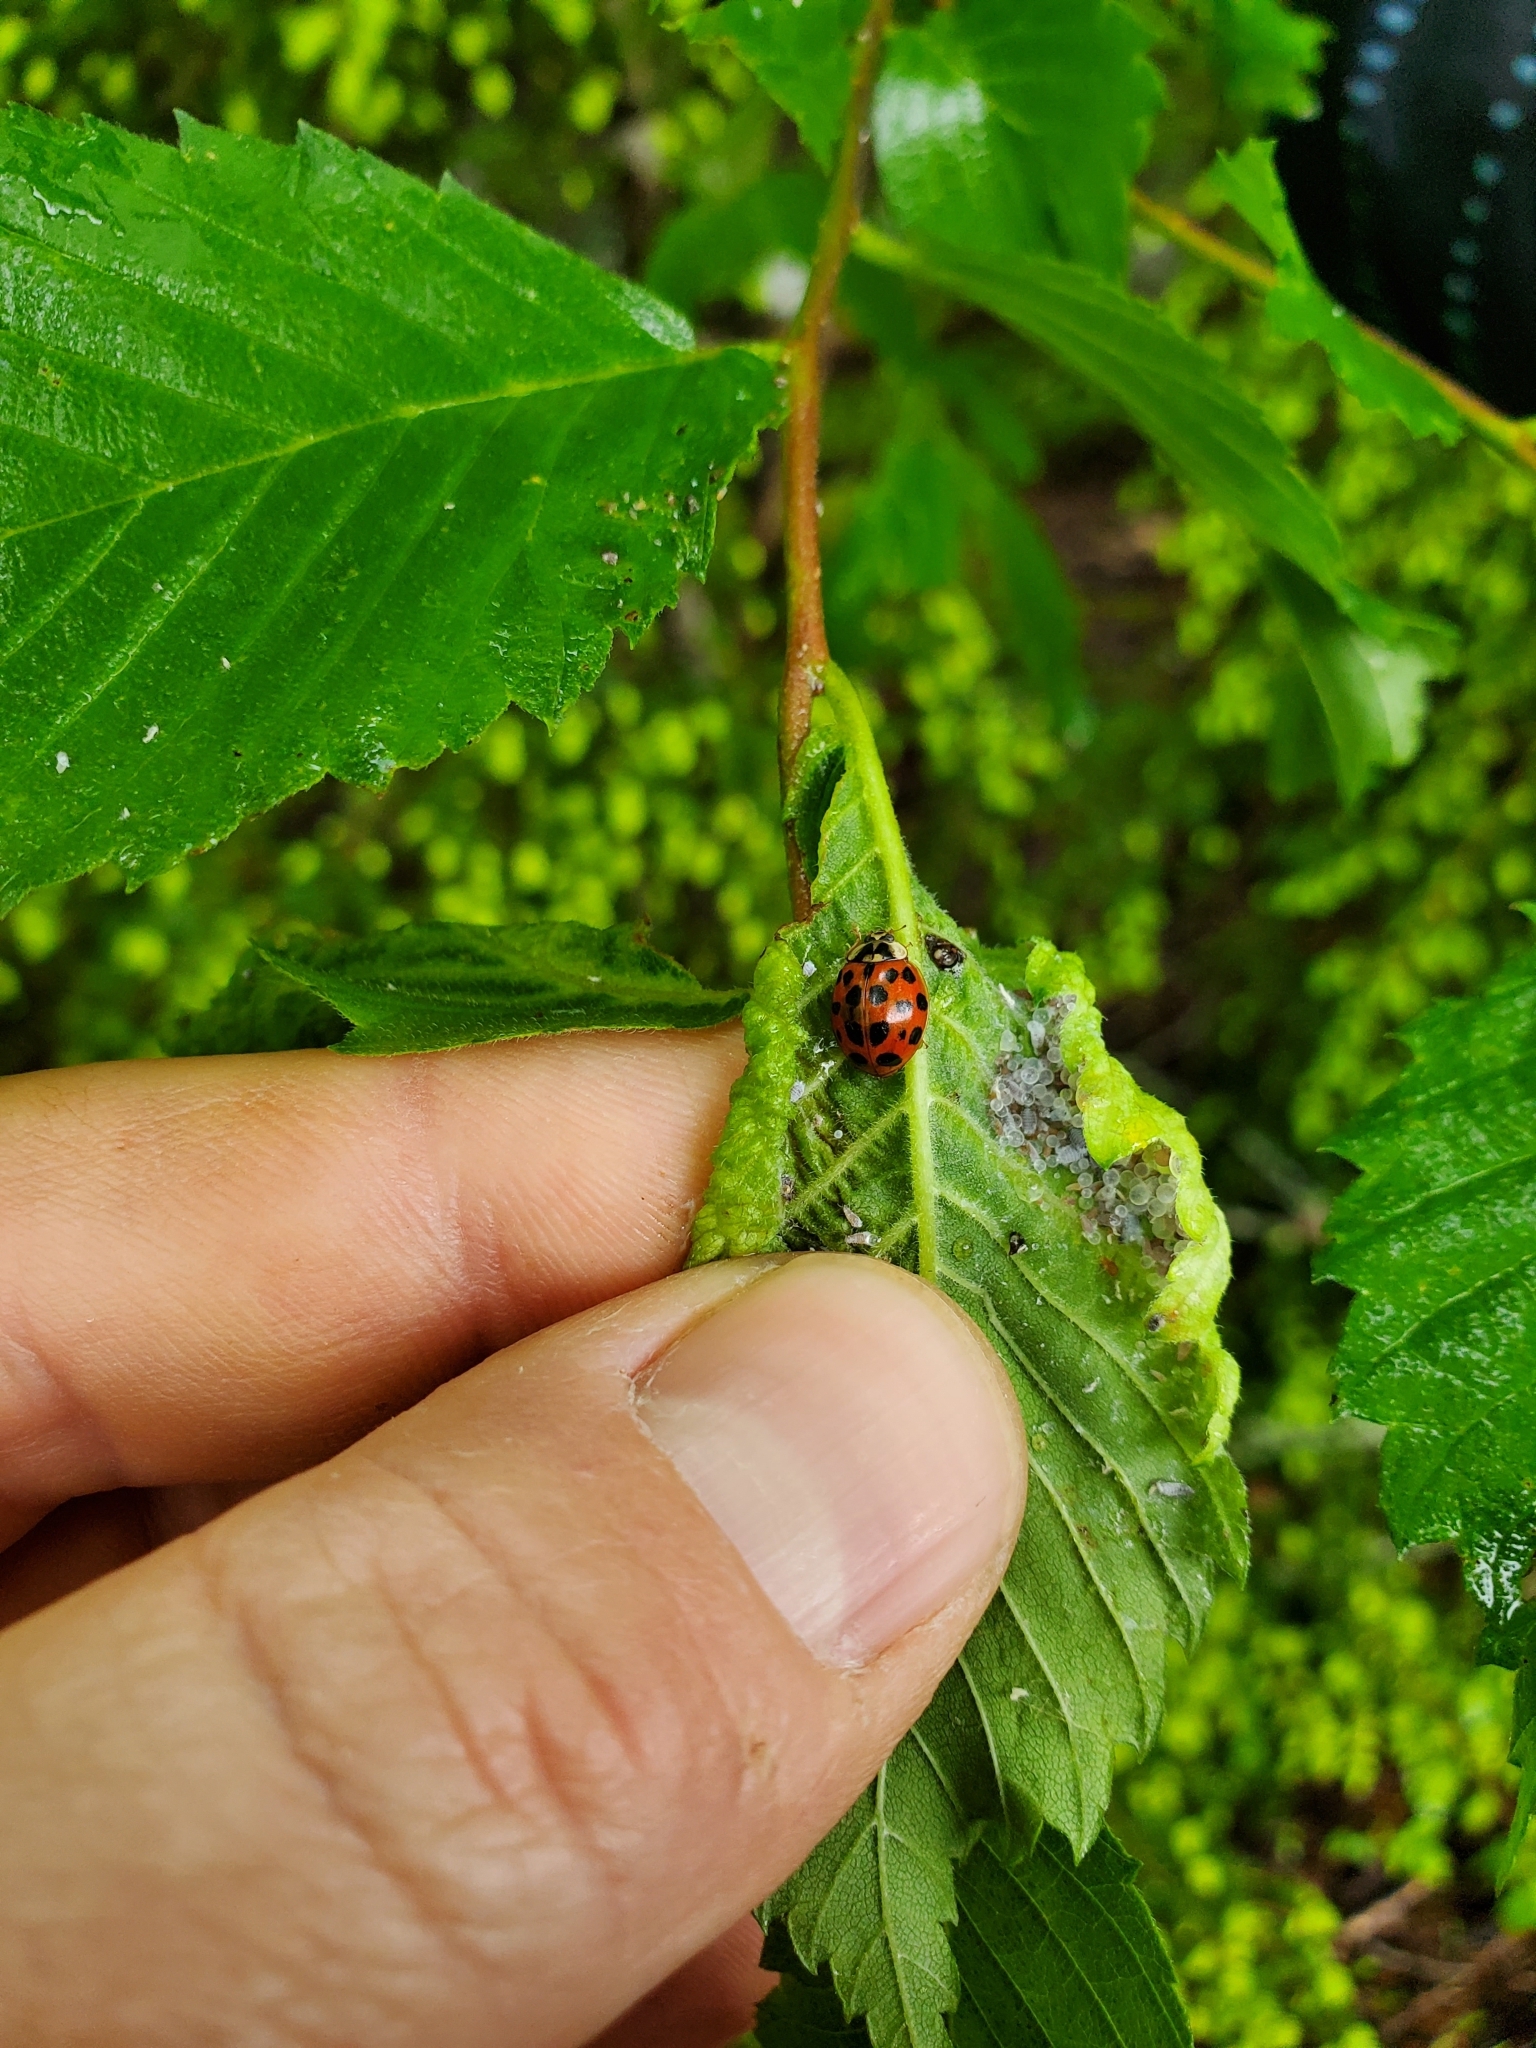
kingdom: Animalia
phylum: Arthropoda
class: Insecta
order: Coleoptera
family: Coccinellidae
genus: Harmonia
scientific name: Harmonia axyridis
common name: Harlequin ladybird
